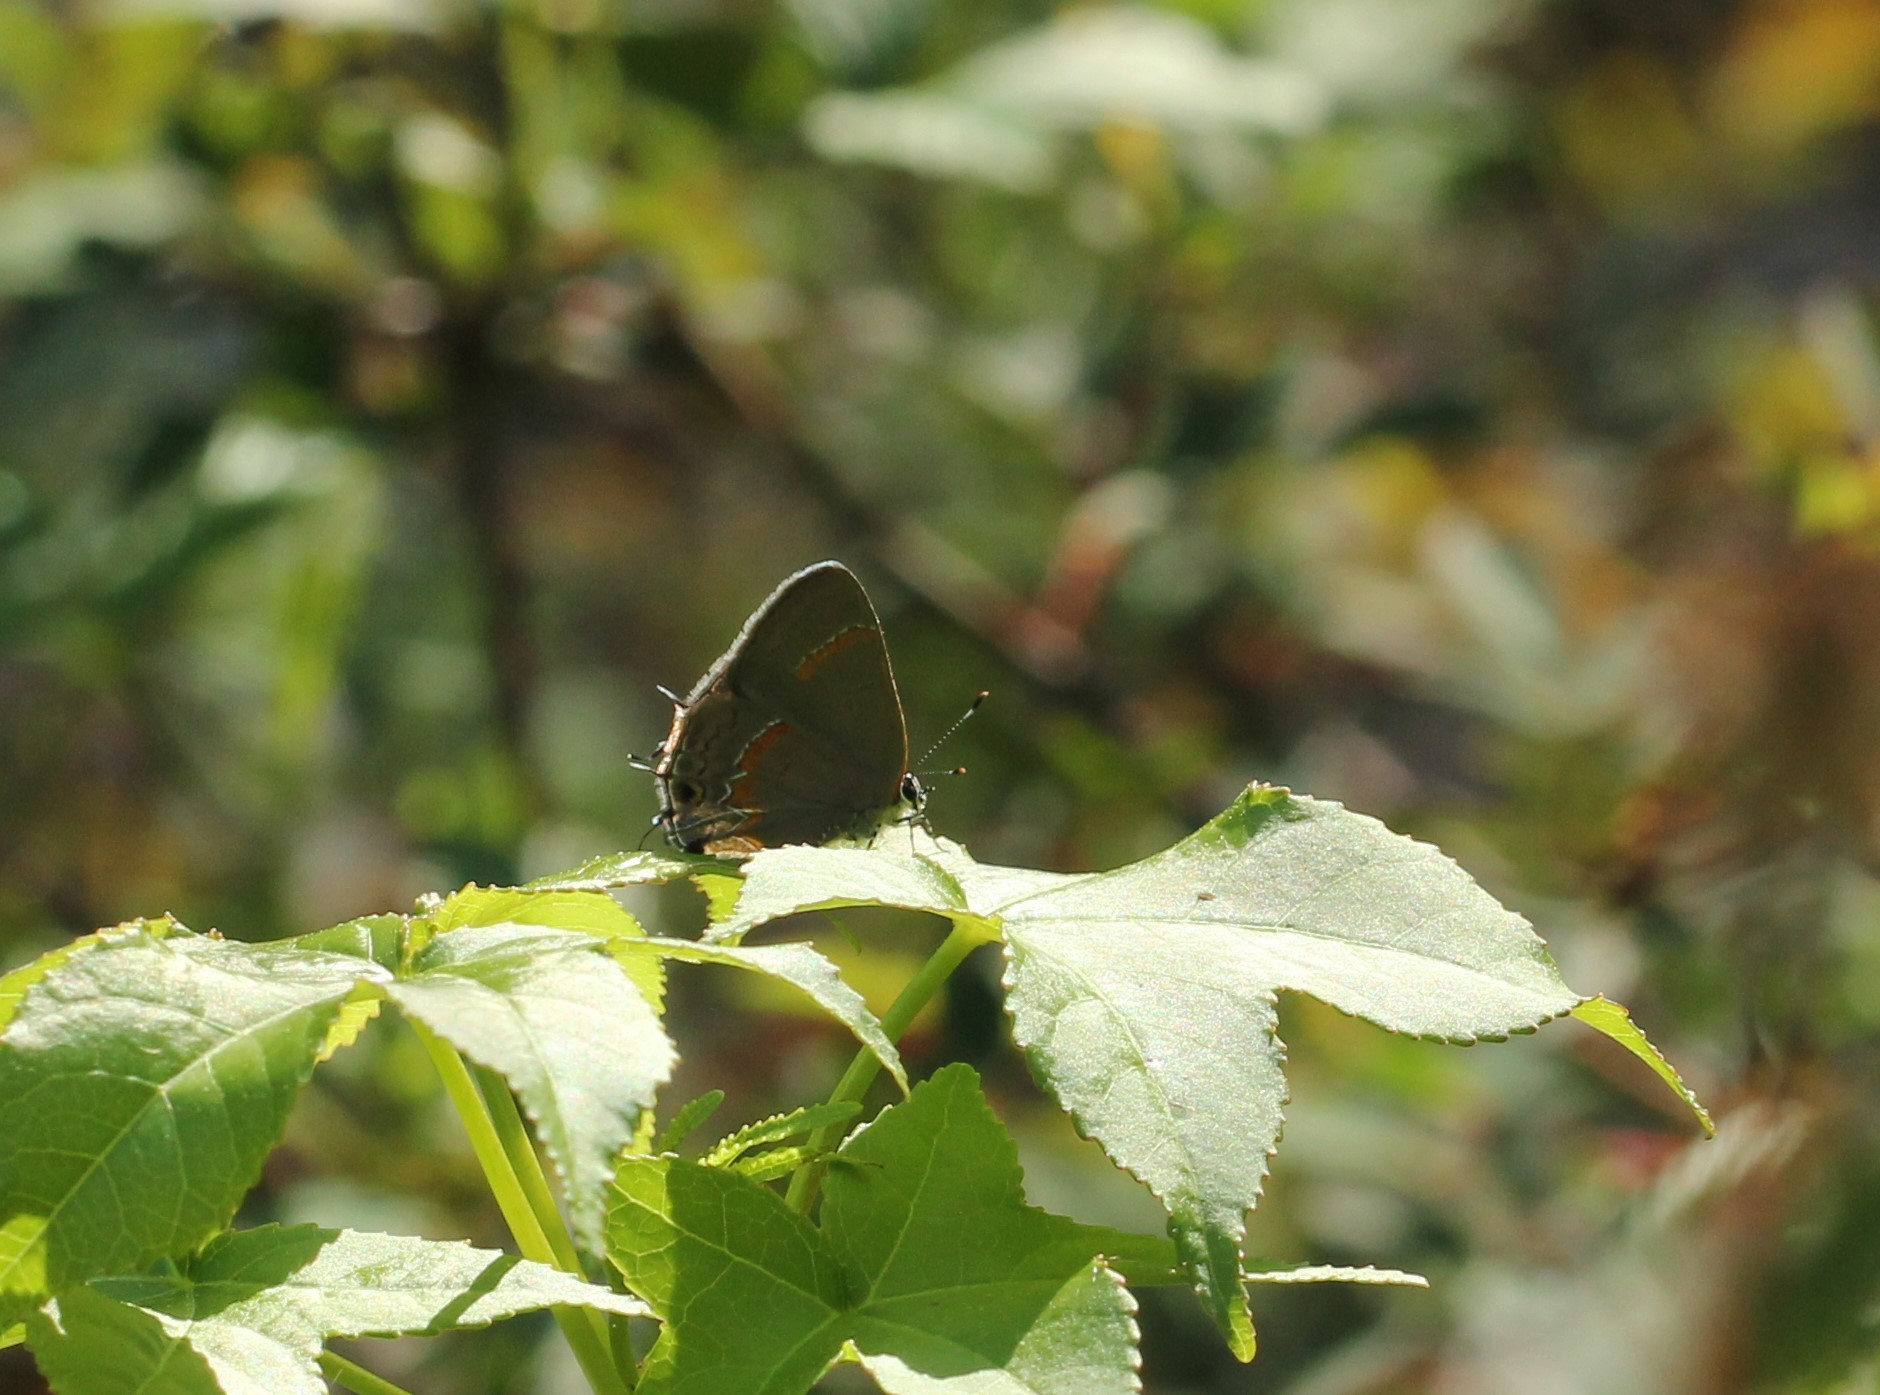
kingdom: Animalia
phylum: Arthropoda
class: Insecta
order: Lepidoptera
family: Lycaenidae
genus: Calycopis
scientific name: Calycopis cecrops
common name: Red-banded hairstreak
